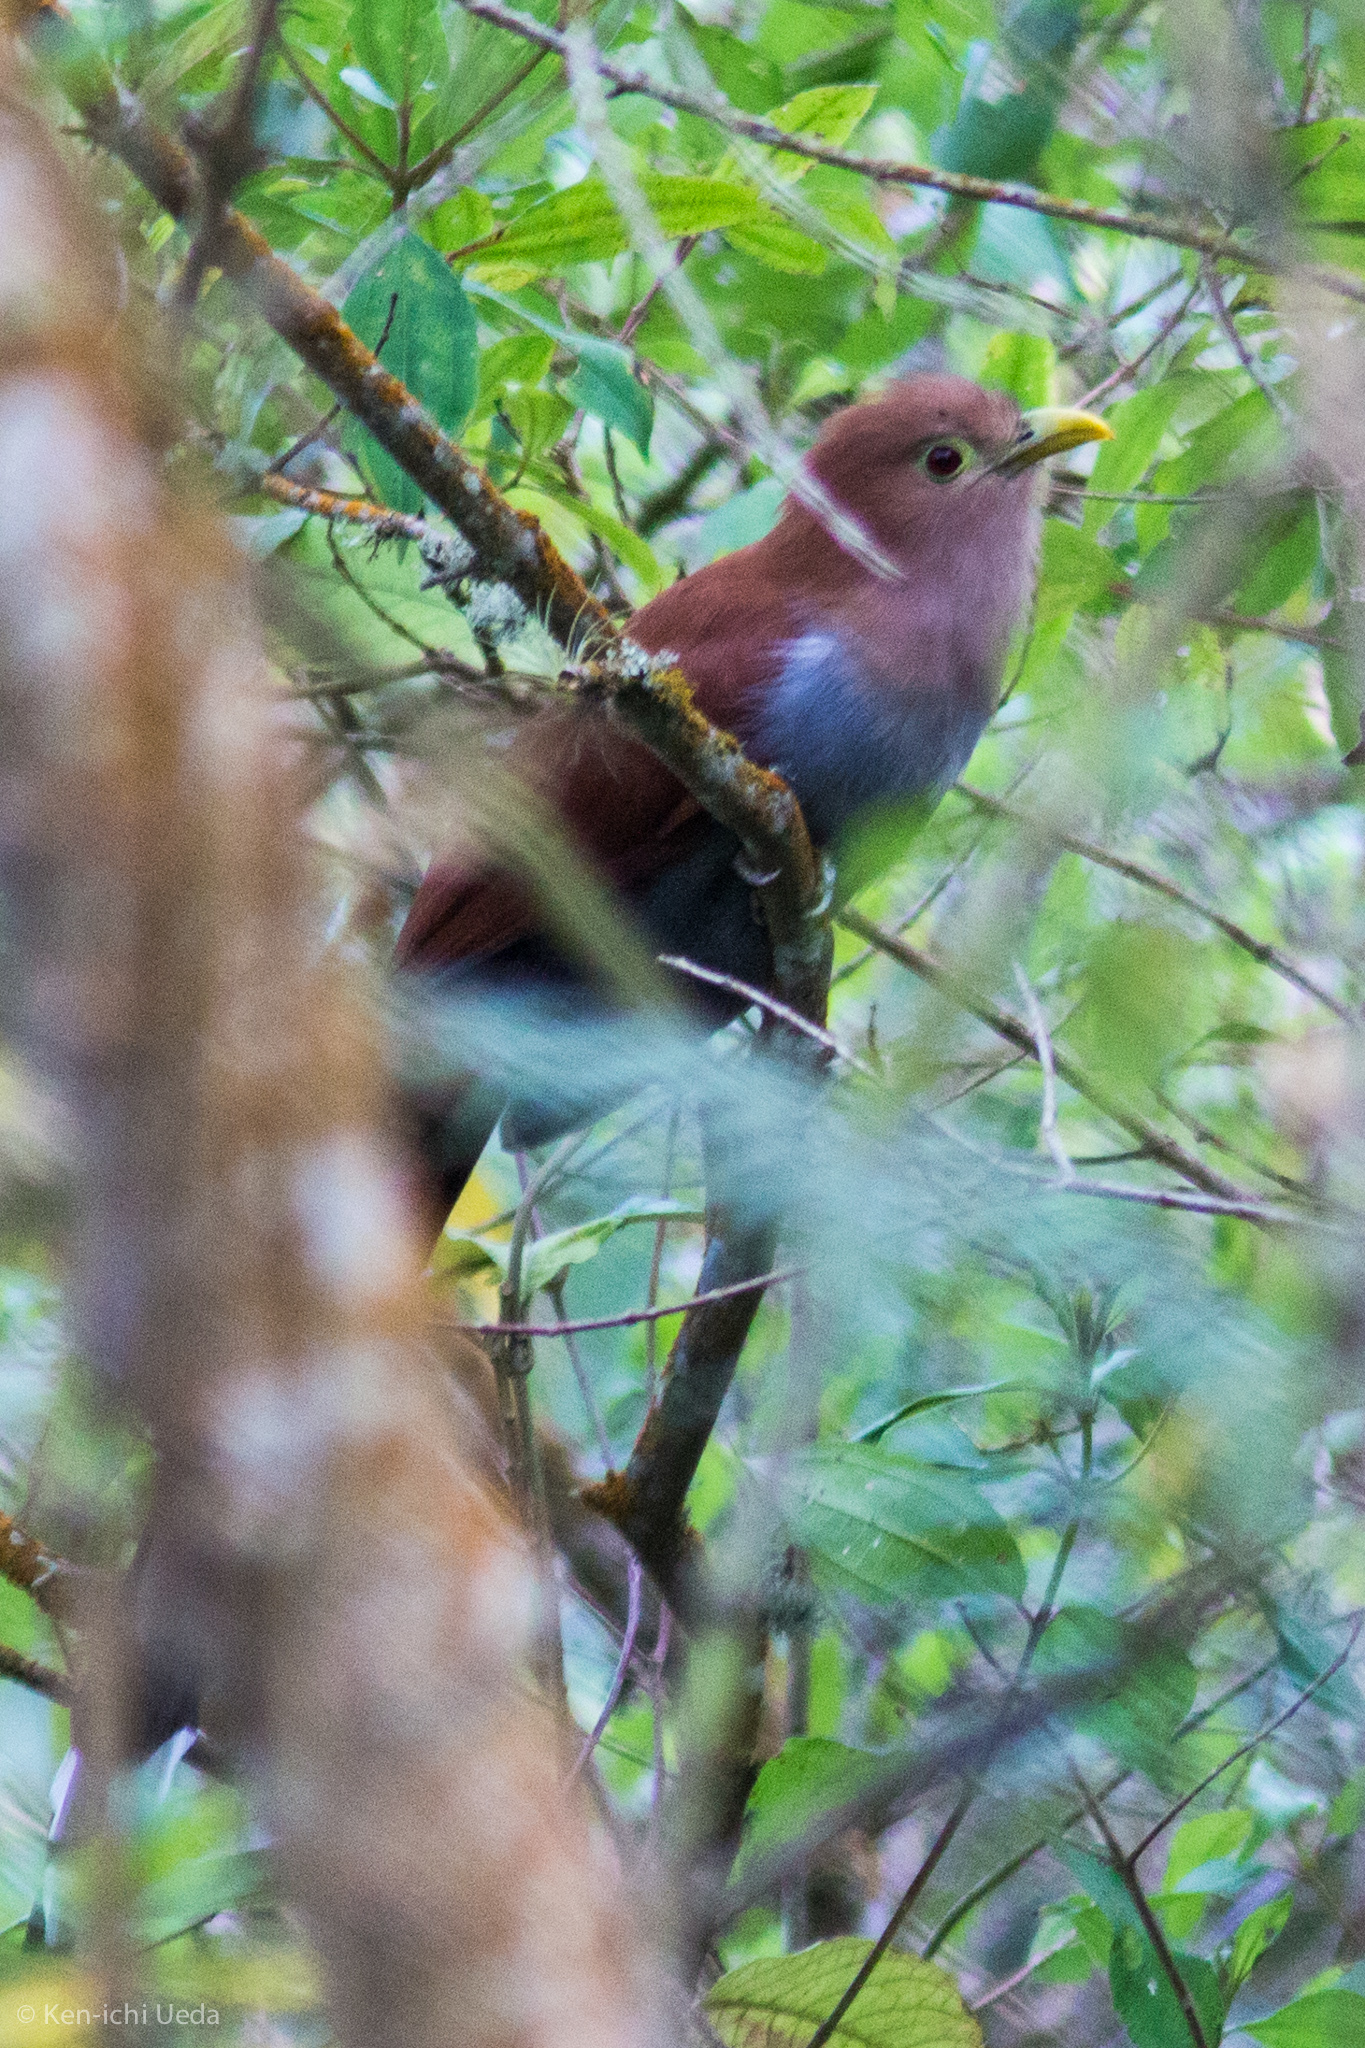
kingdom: Animalia
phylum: Chordata
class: Aves
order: Cuculiformes
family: Cuculidae
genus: Piaya
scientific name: Piaya cayana
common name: Squirrel cuckoo
